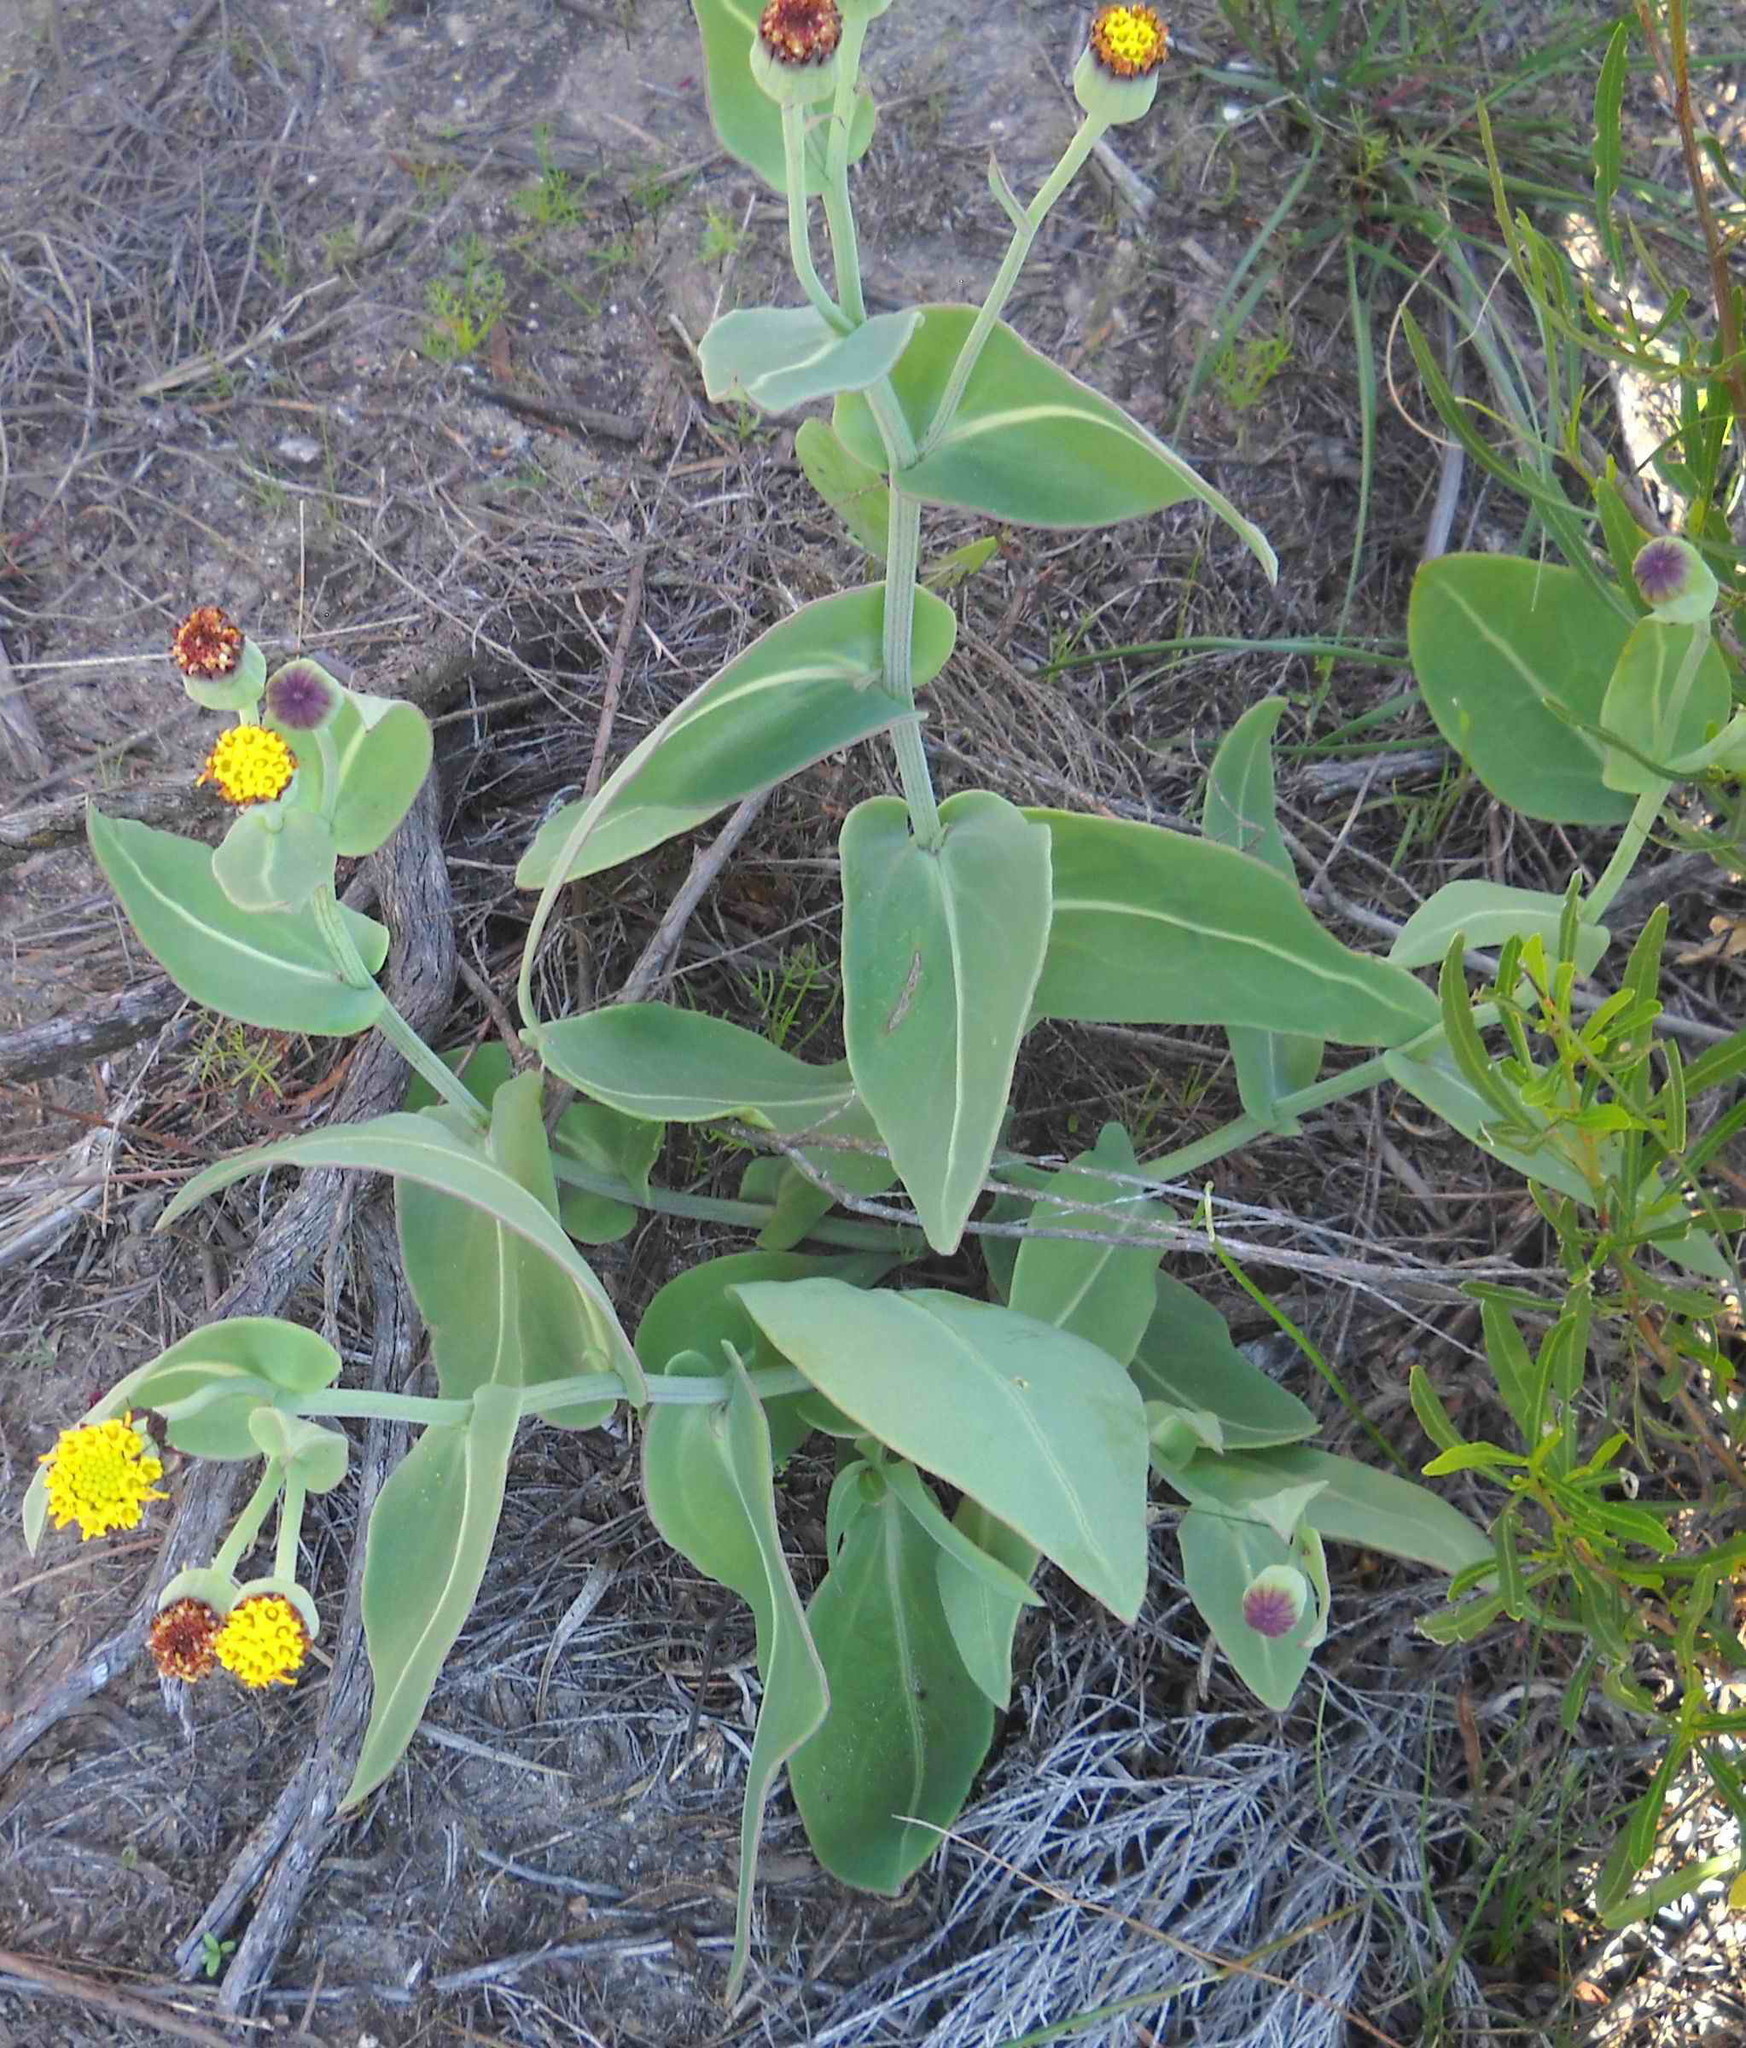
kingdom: Plantae
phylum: Tracheophyta
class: Magnoliopsida
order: Asterales
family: Asteraceae
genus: Othonna
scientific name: Othonna gymnodiscus
